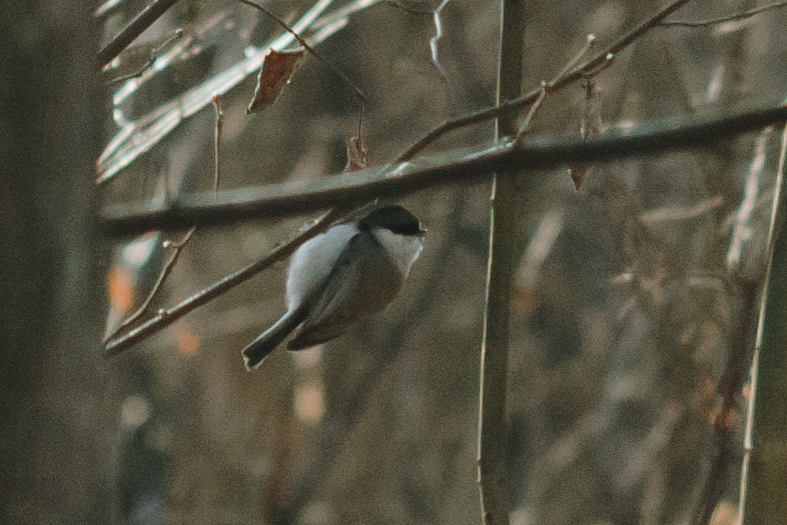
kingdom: Animalia
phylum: Chordata
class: Aves
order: Passeriformes
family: Paridae
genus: Poecile
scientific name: Poecile montanus
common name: Willow tit
